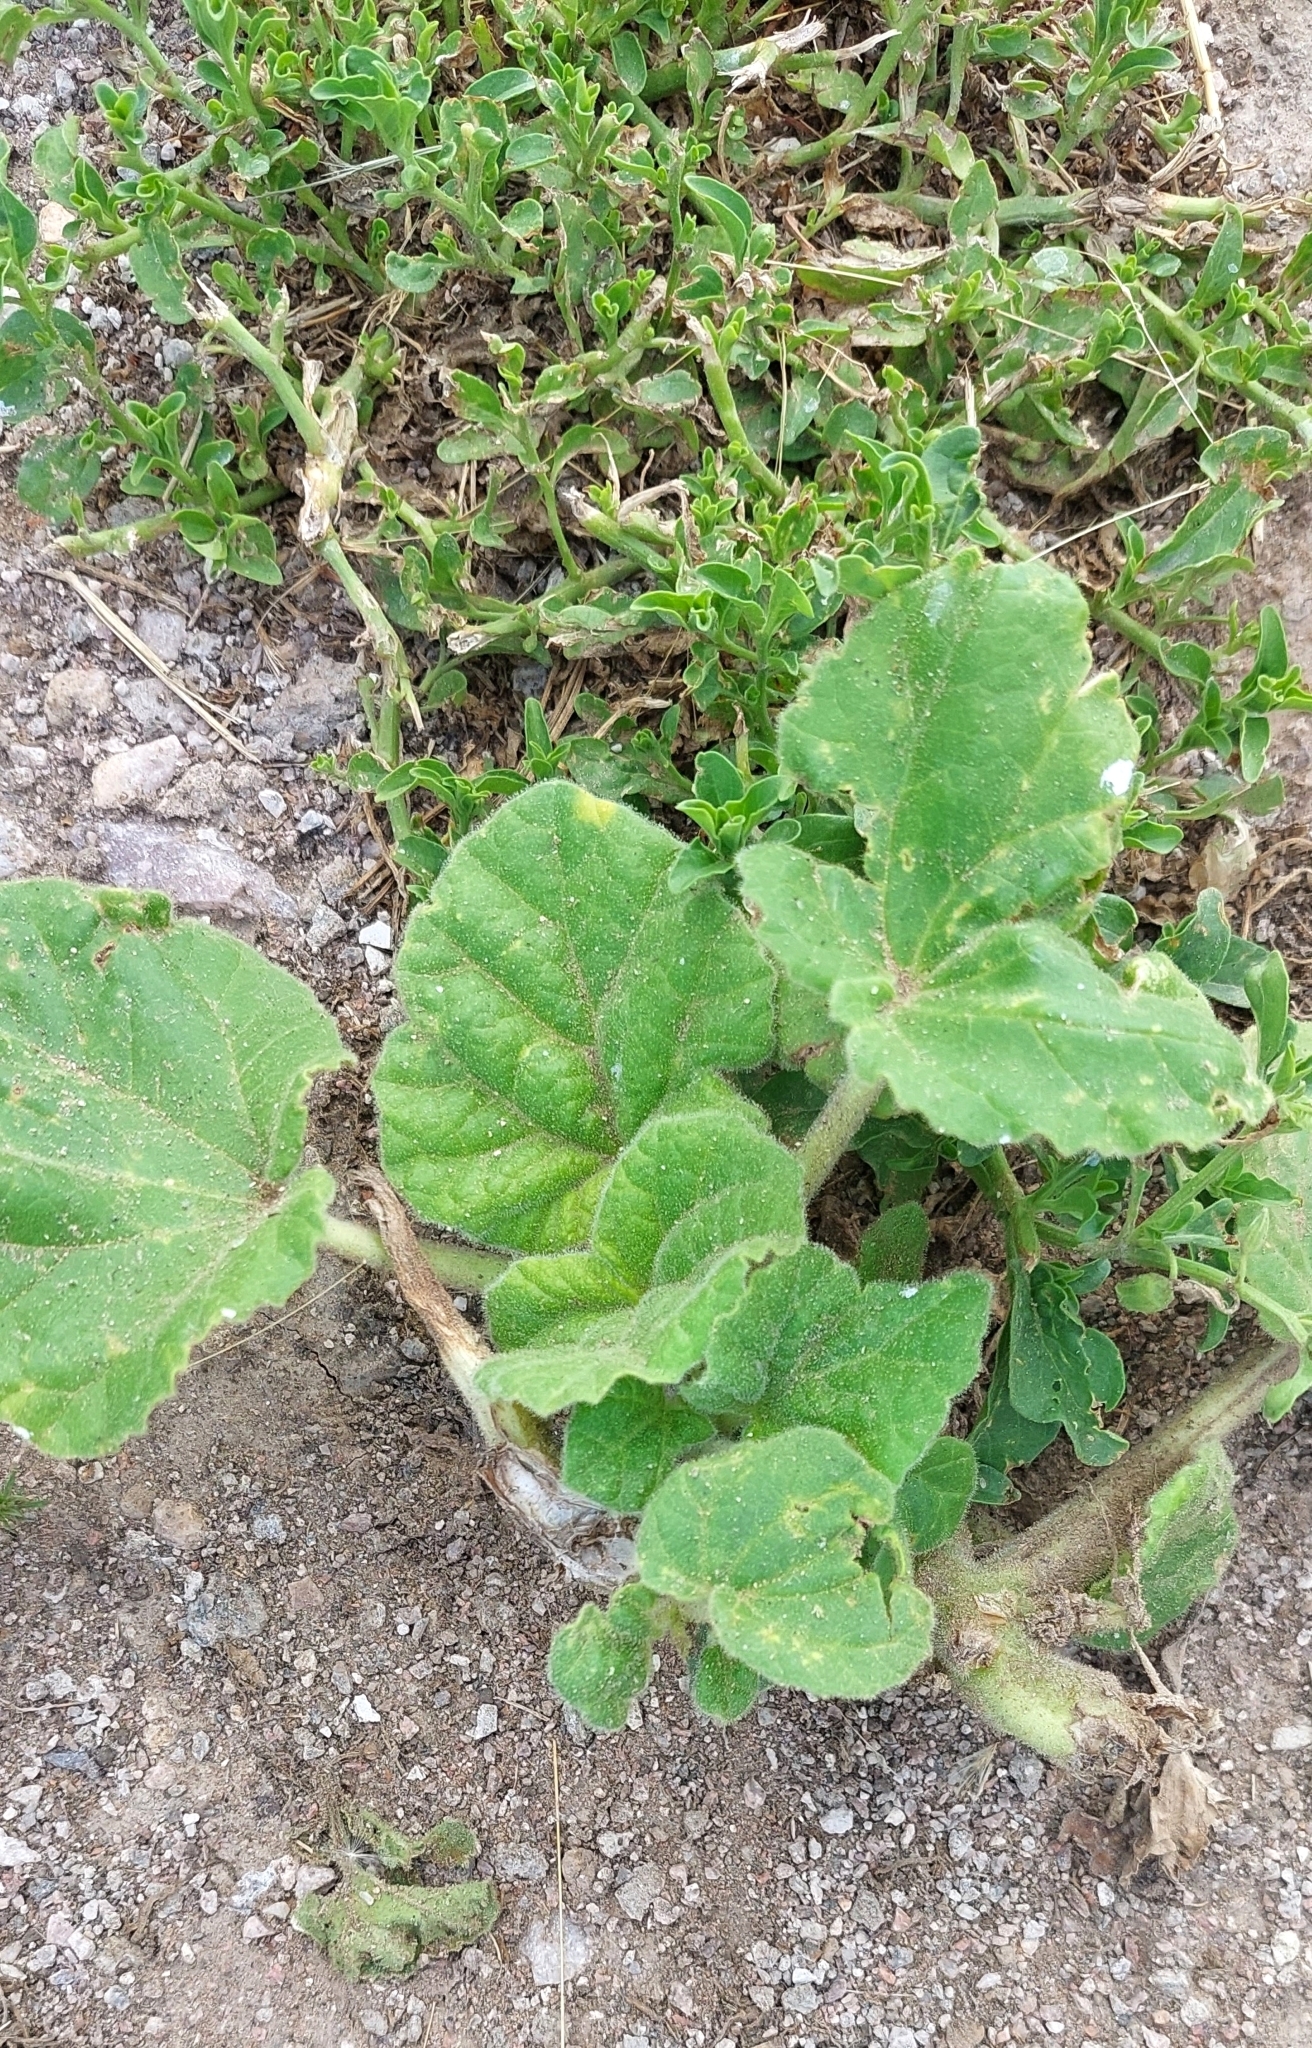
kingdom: Plantae
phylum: Tracheophyta
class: Magnoliopsida
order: Lamiales
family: Martyniaceae
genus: Ibicella
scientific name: Ibicella lutea
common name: Yellow unicorn-plant
